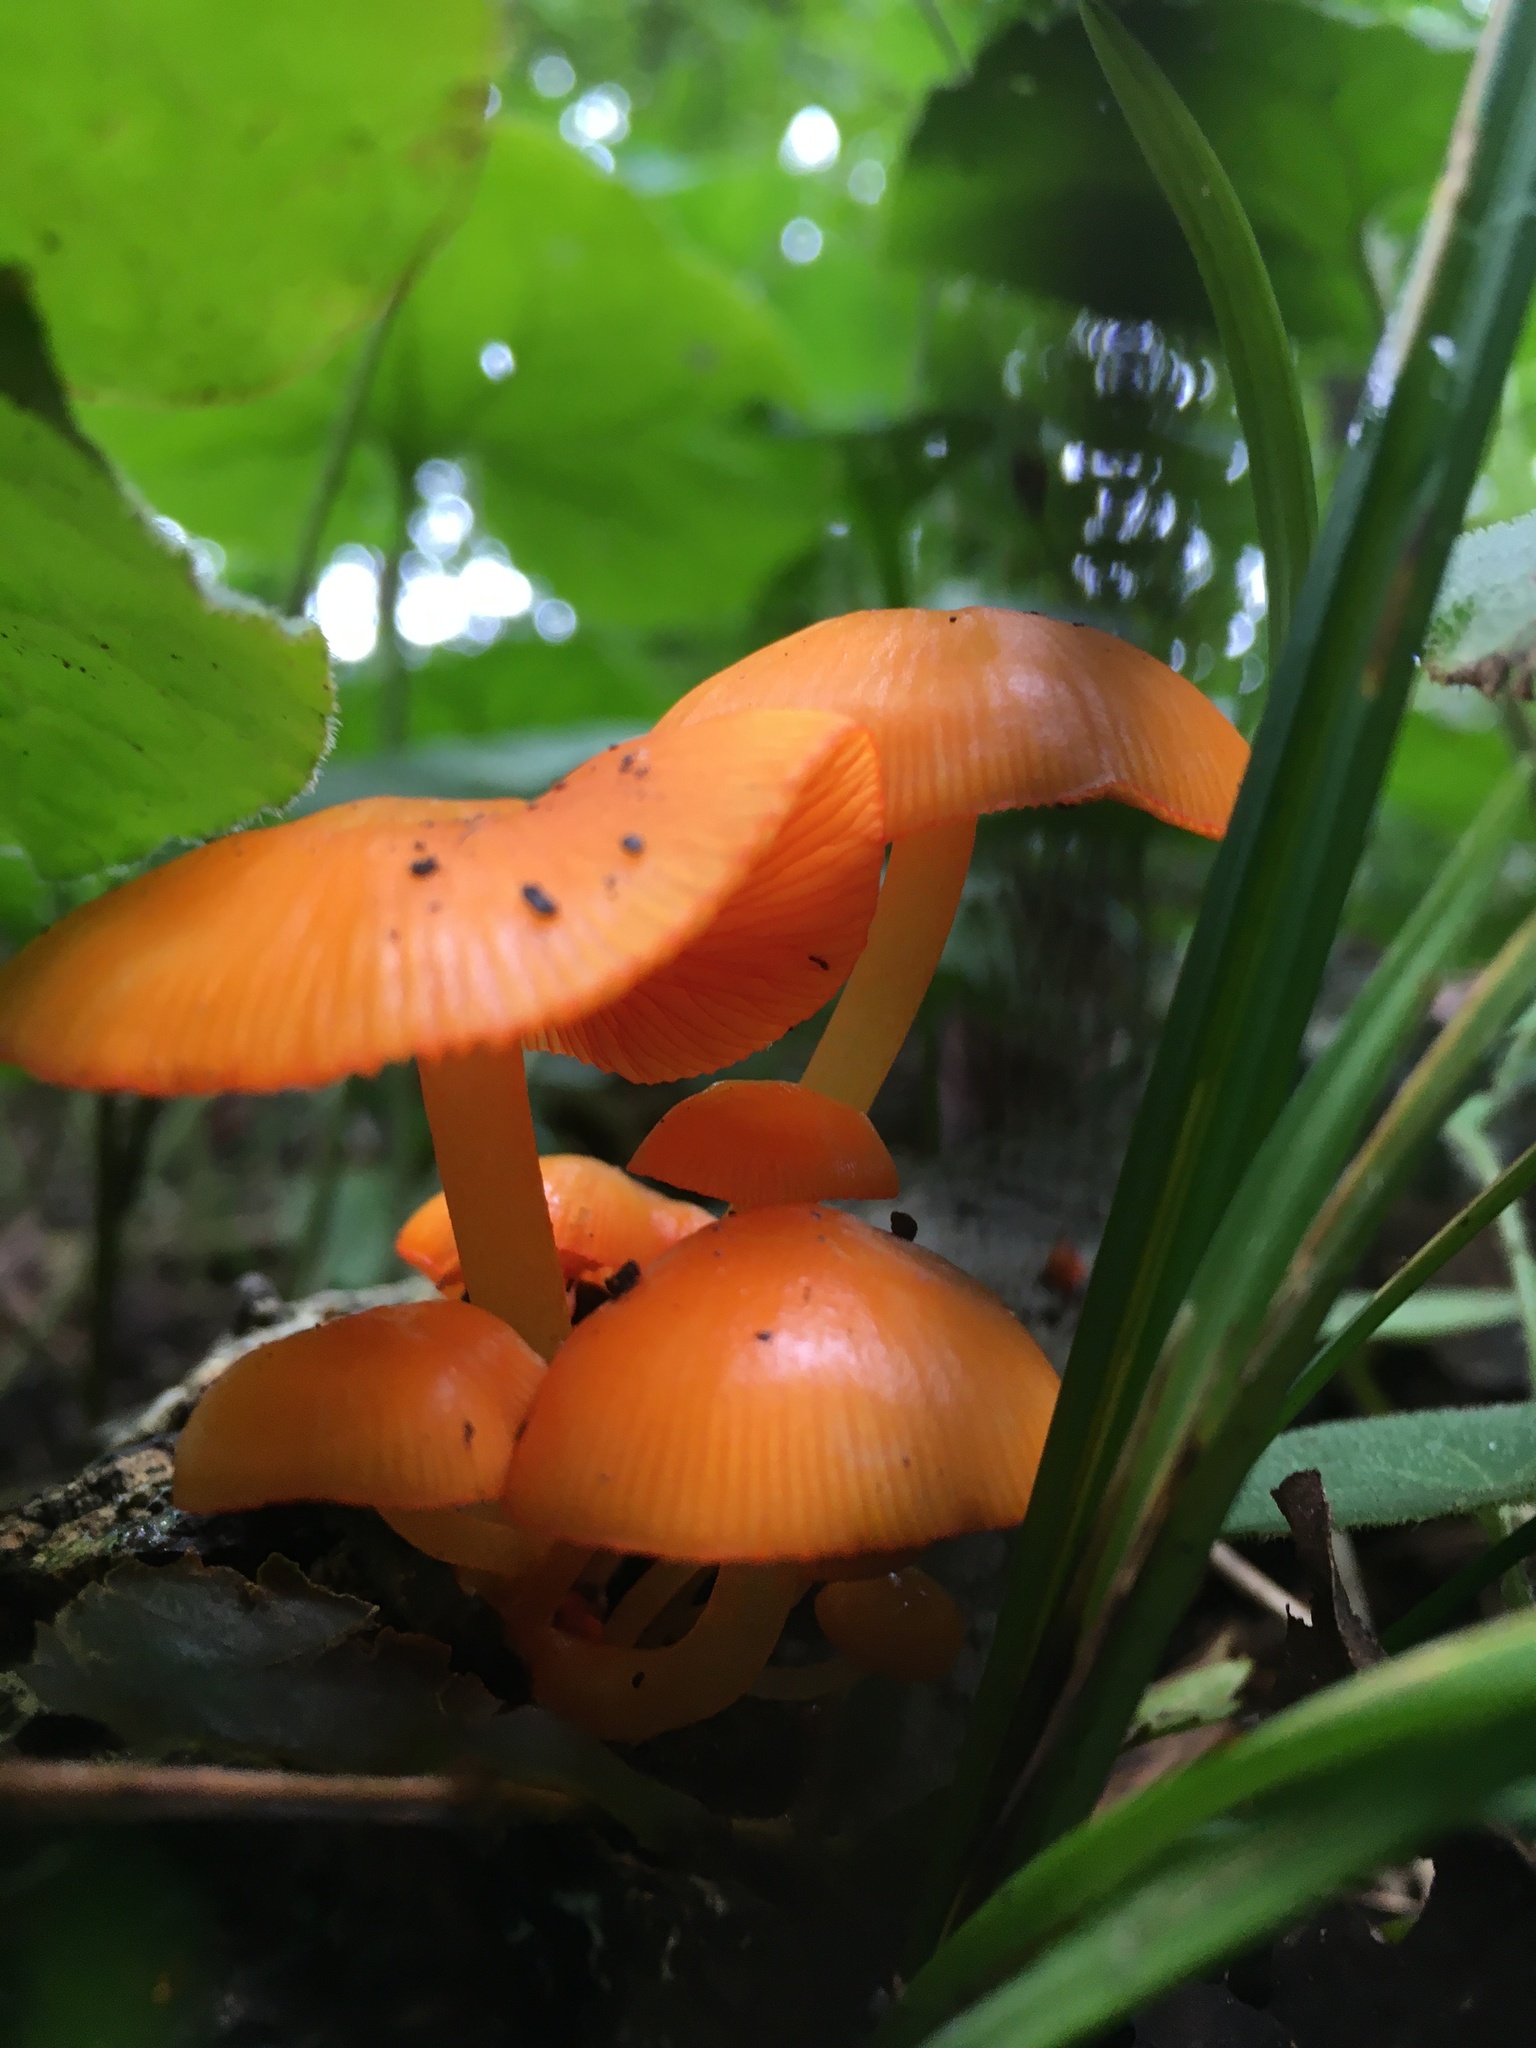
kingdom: Fungi
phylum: Basidiomycota
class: Agaricomycetes
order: Agaricales
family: Mycenaceae
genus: Mycena
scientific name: Mycena leaiana
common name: Orange mycena
